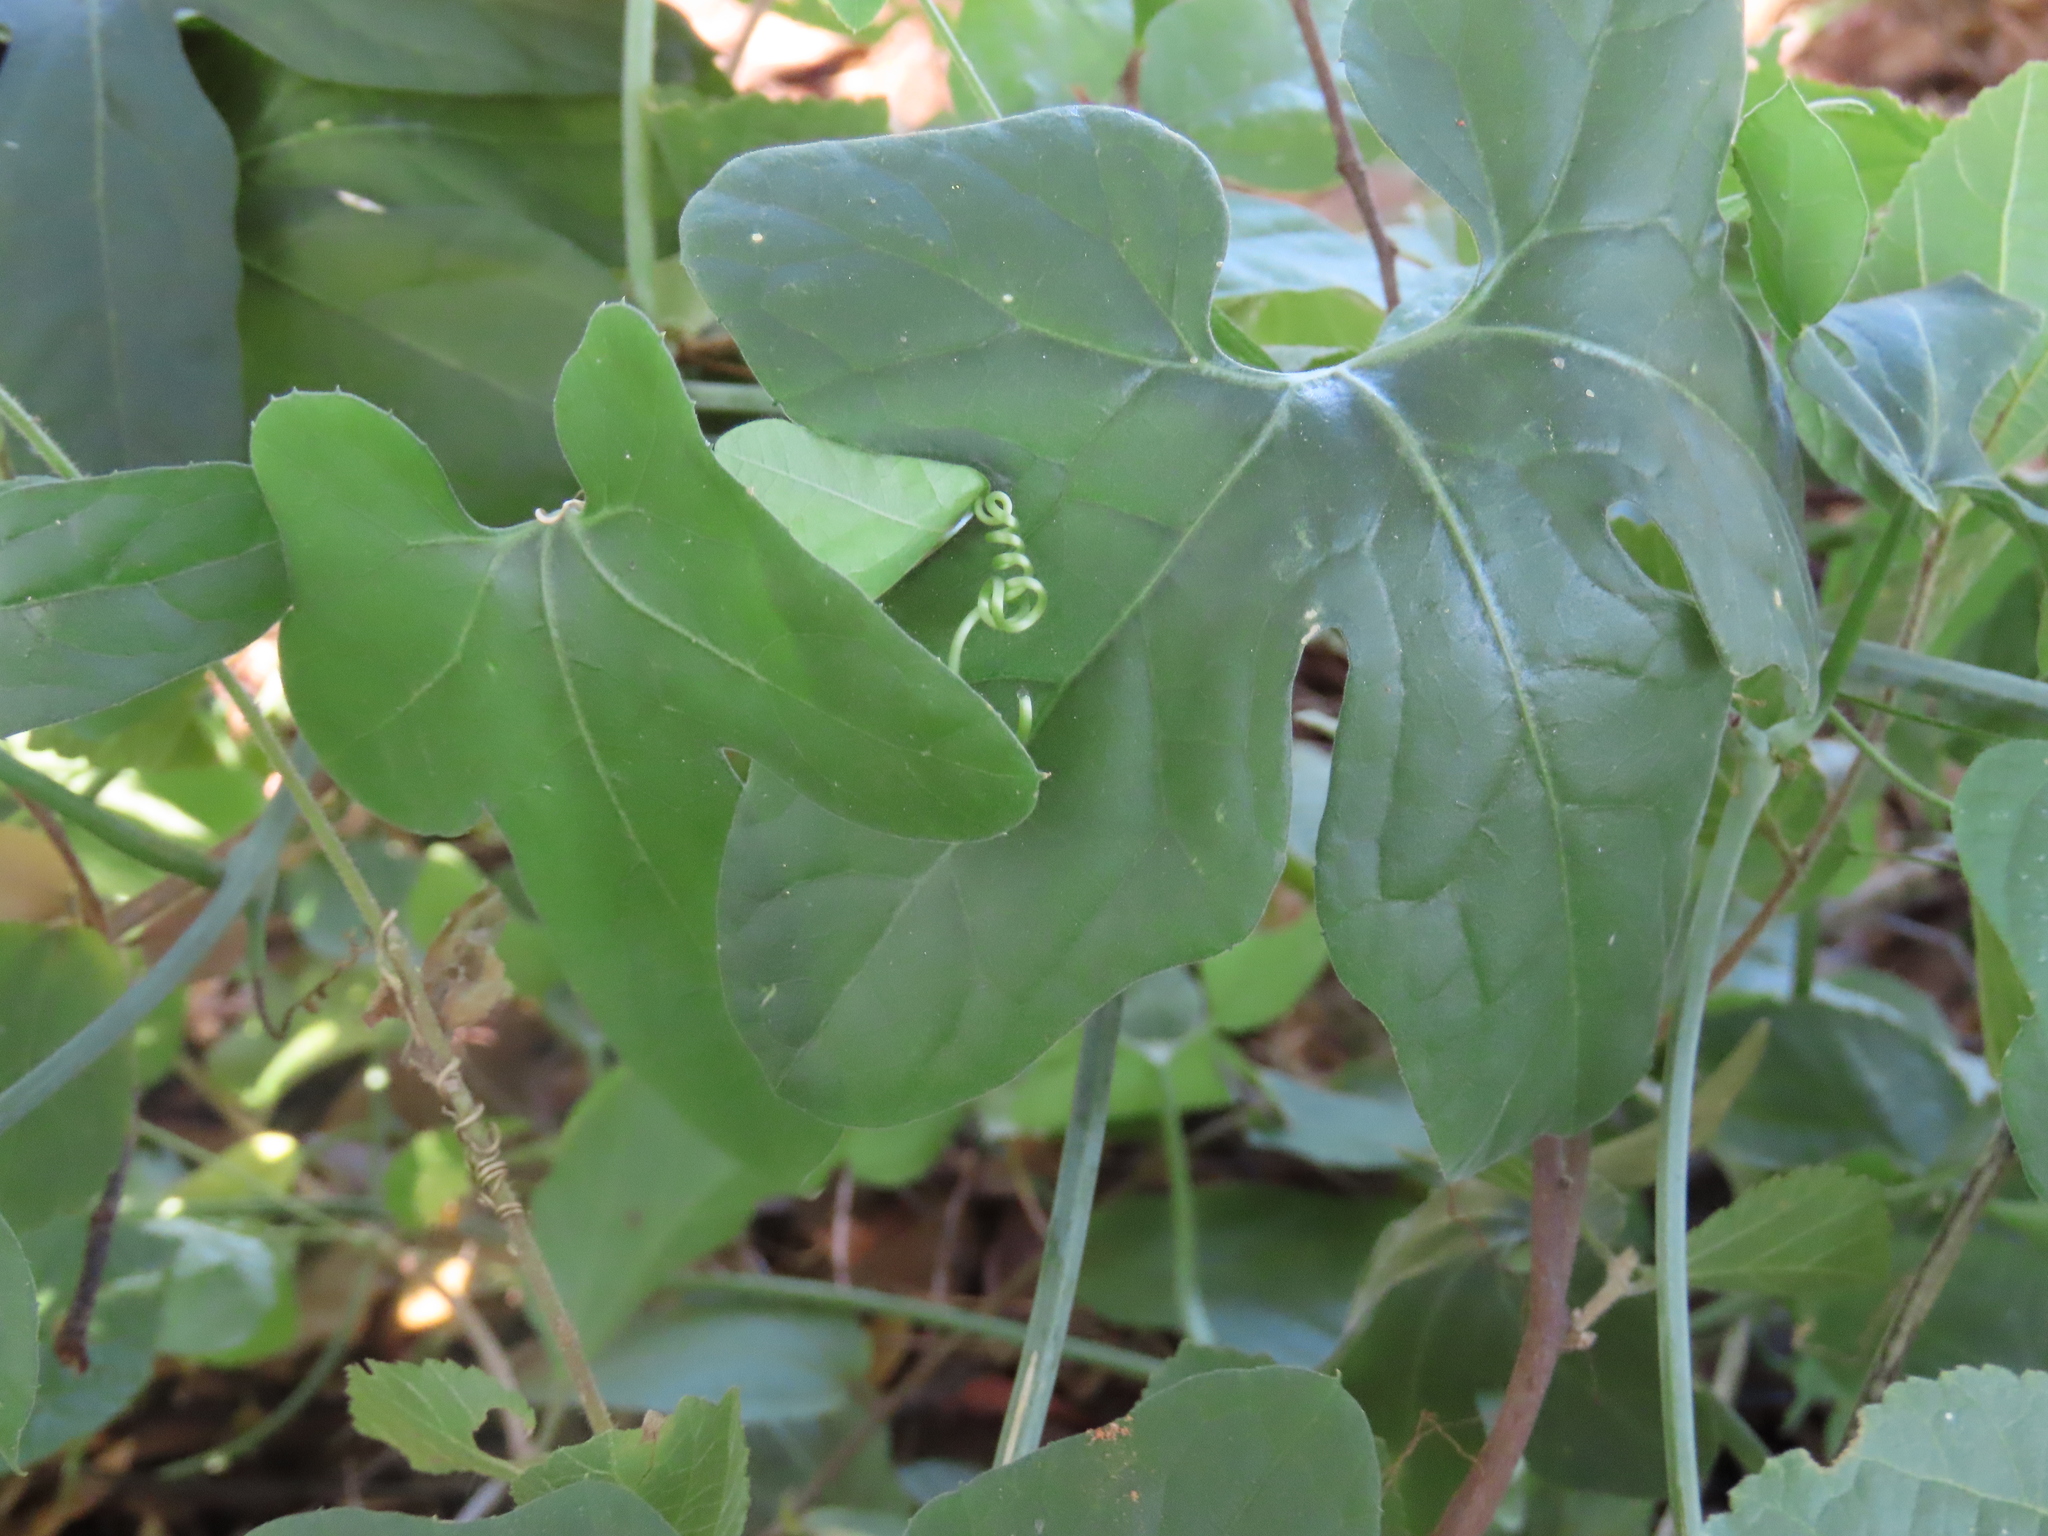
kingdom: Plantae
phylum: Tracheophyta
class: Magnoliopsida
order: Cucurbitales
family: Cucurbitaceae
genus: Corallocarpus
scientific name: Corallocarpus bainesii
